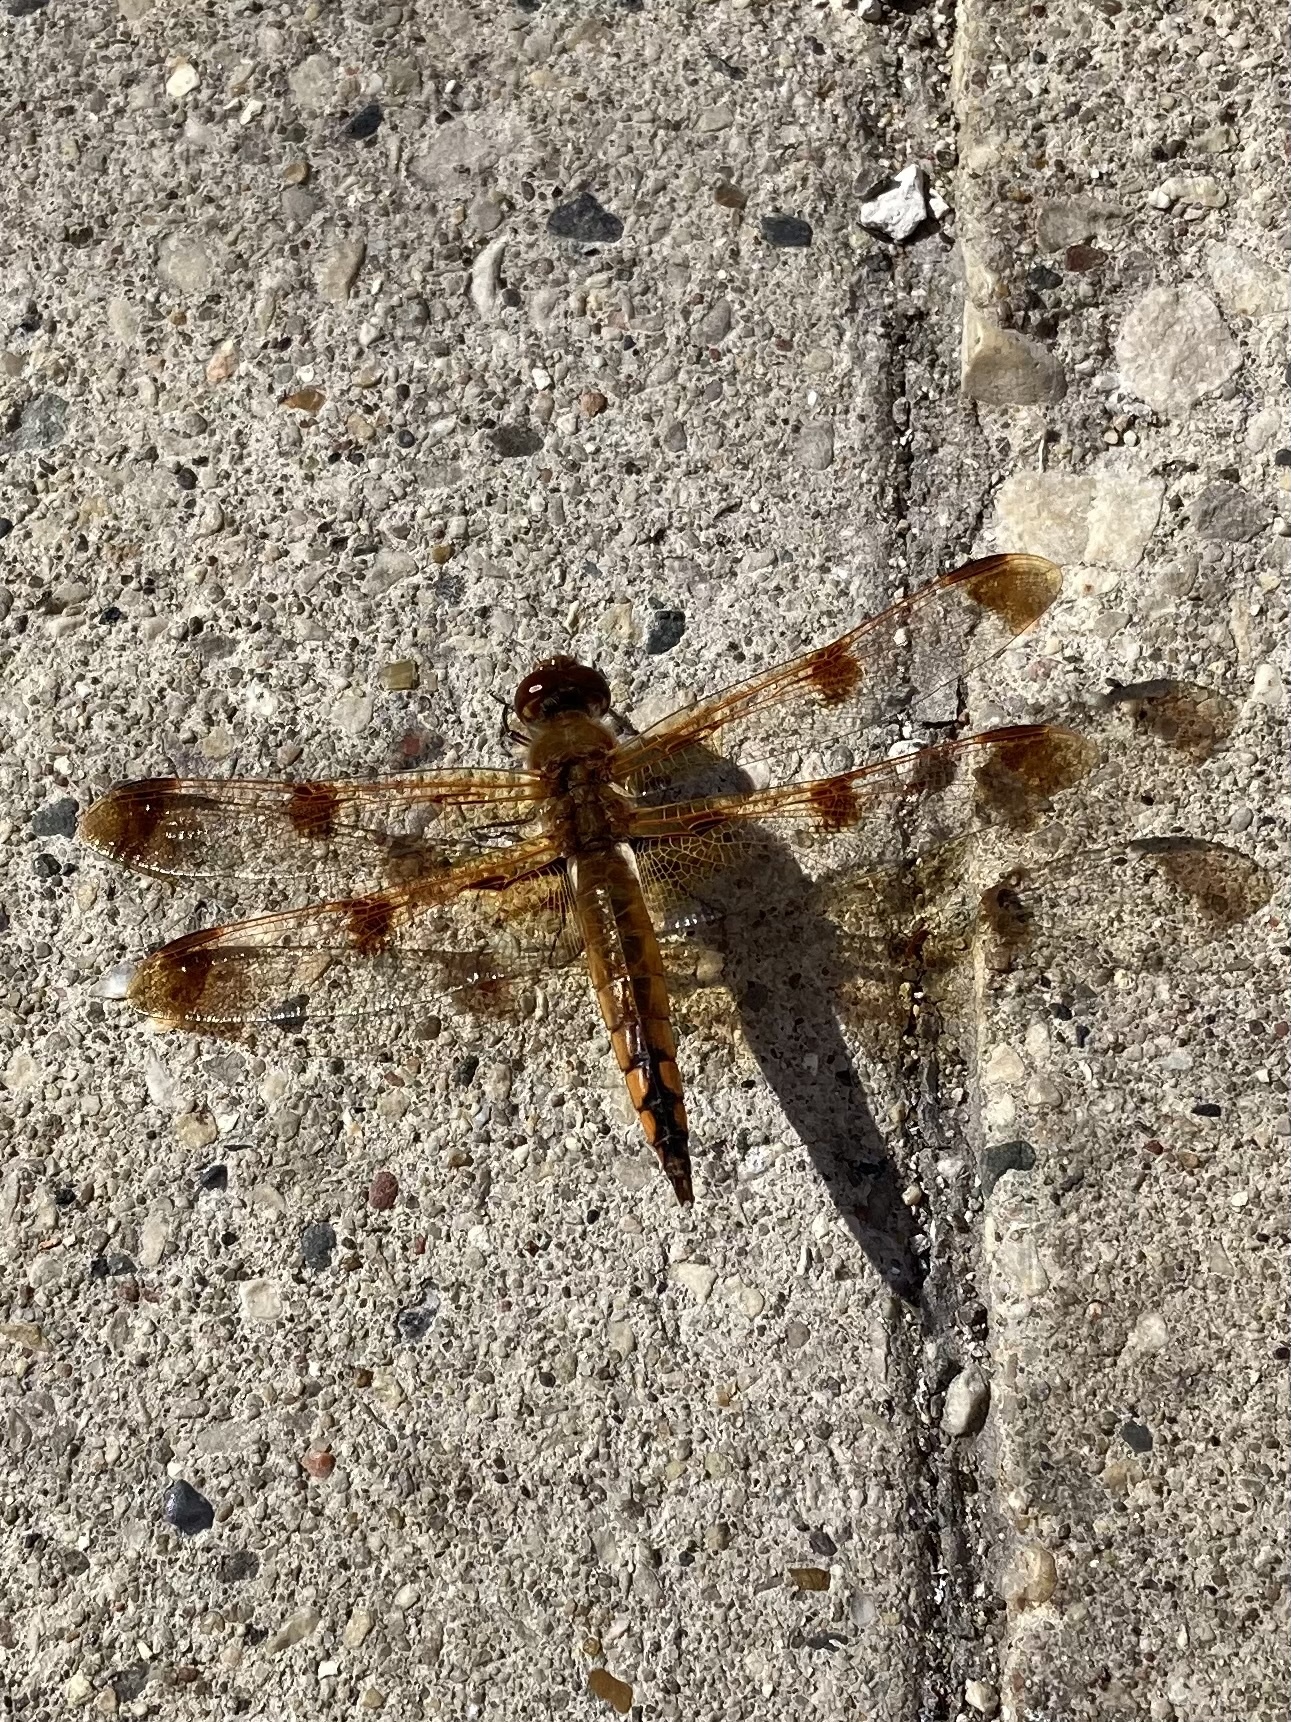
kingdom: Animalia
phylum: Arthropoda
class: Insecta
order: Odonata
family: Libellulidae
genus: Libellula
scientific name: Libellula semifasciata
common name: Painted skimmer
